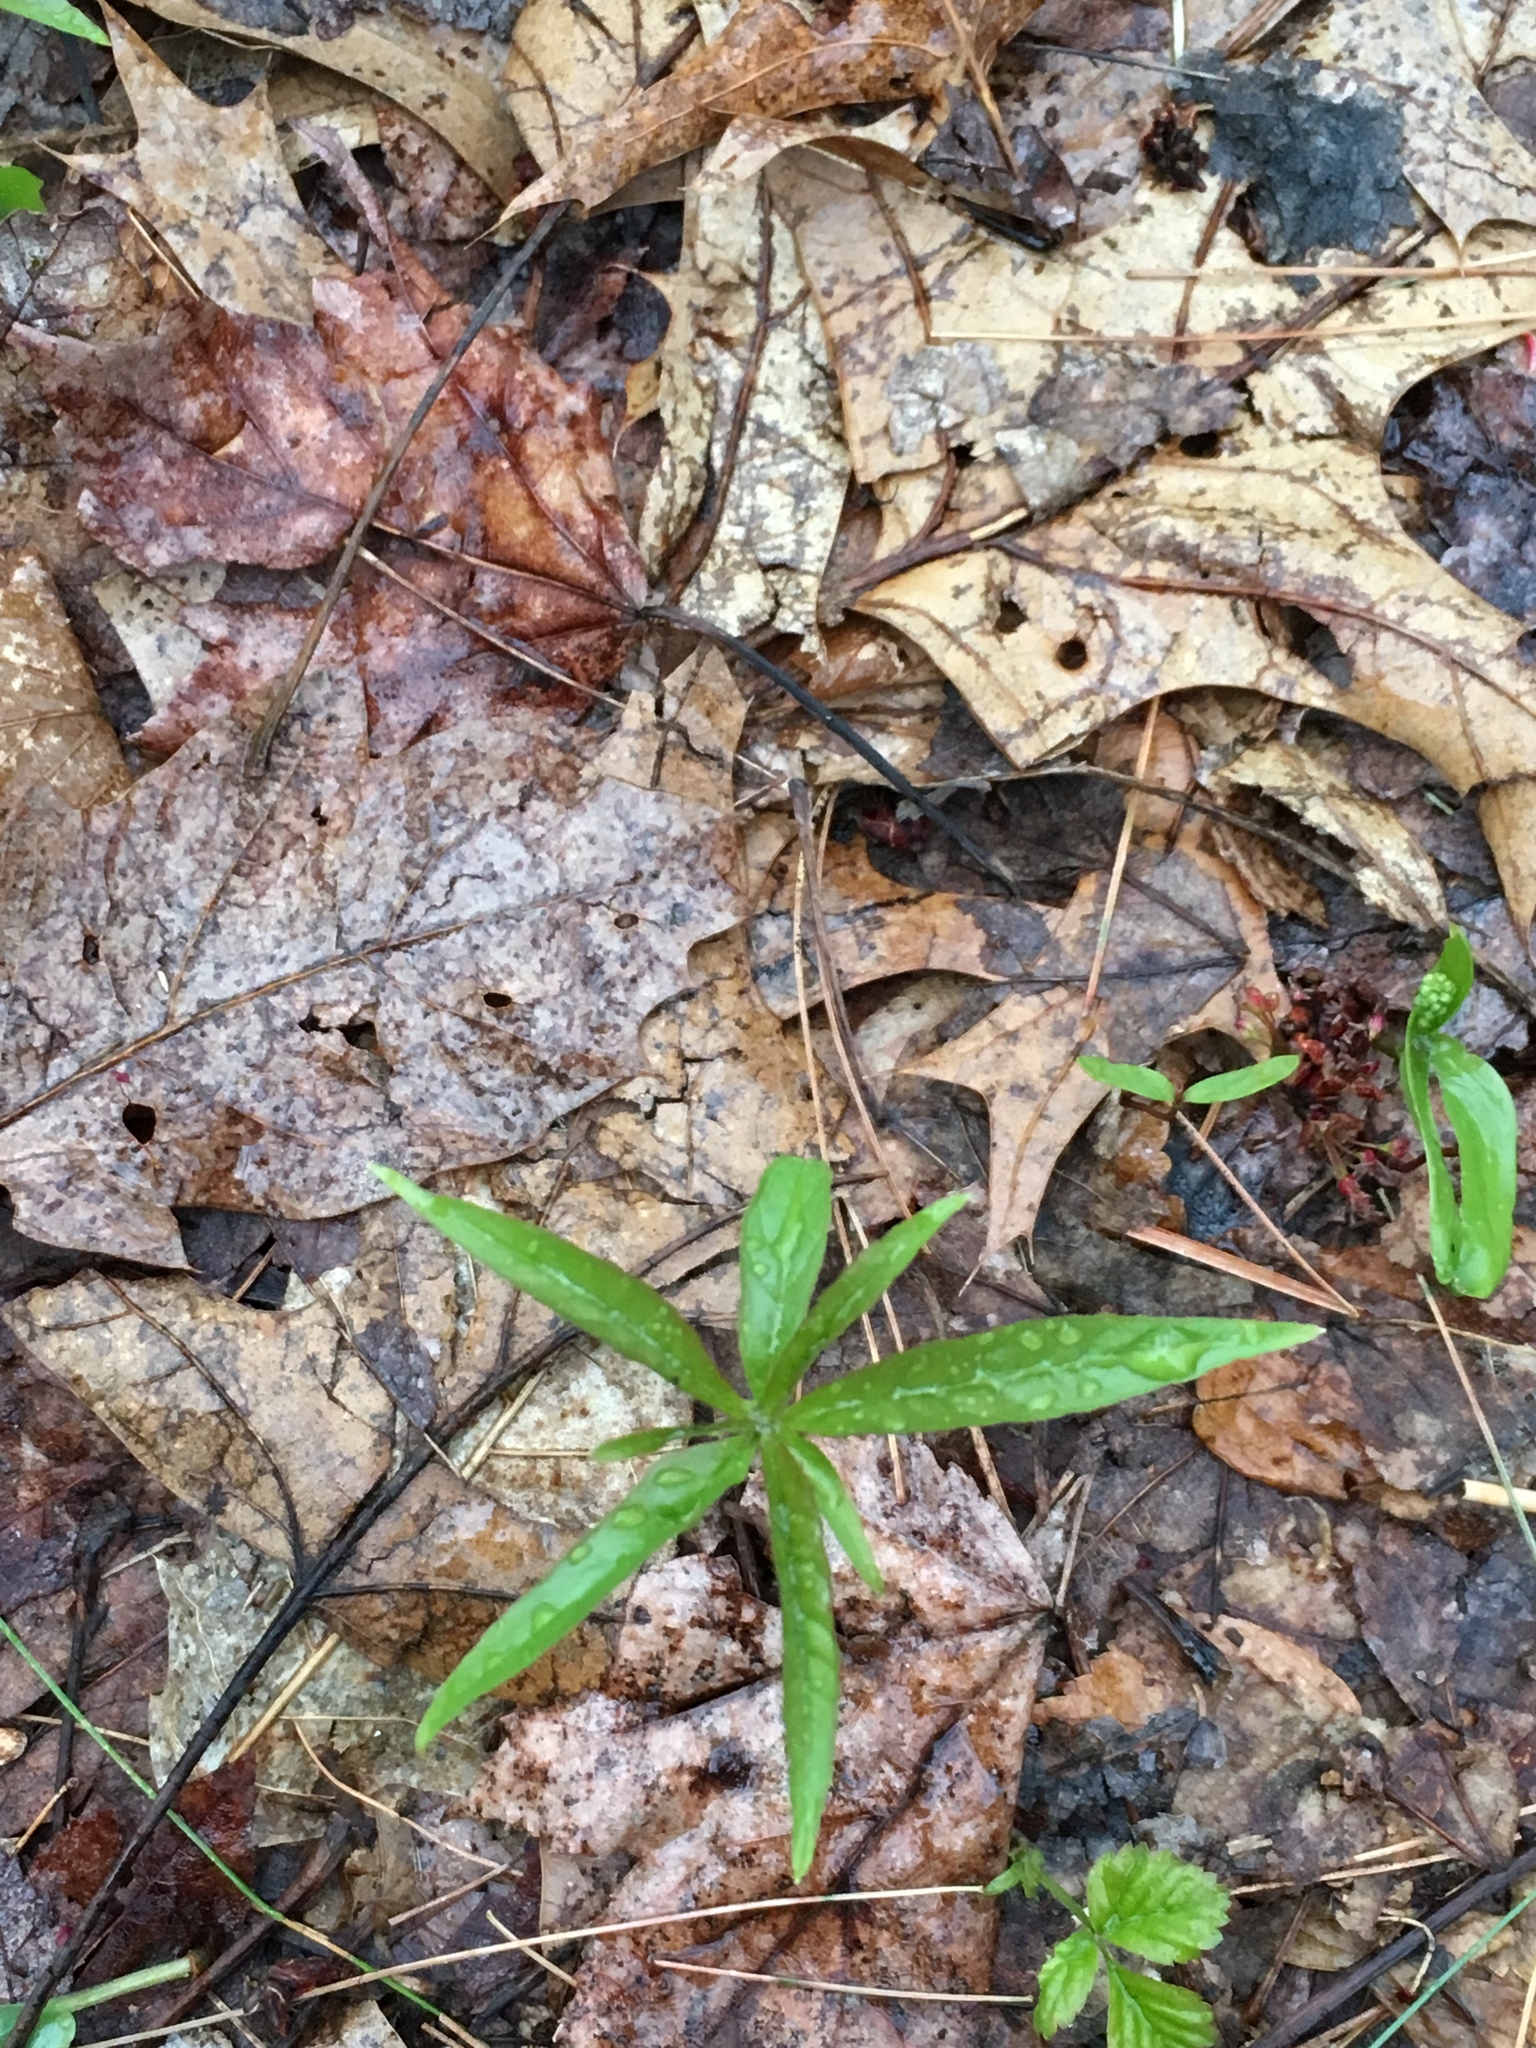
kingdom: Plantae
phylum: Tracheophyta
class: Magnoliopsida
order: Ericales
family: Primulaceae
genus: Lysimachia
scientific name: Lysimachia borealis
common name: American starflower
